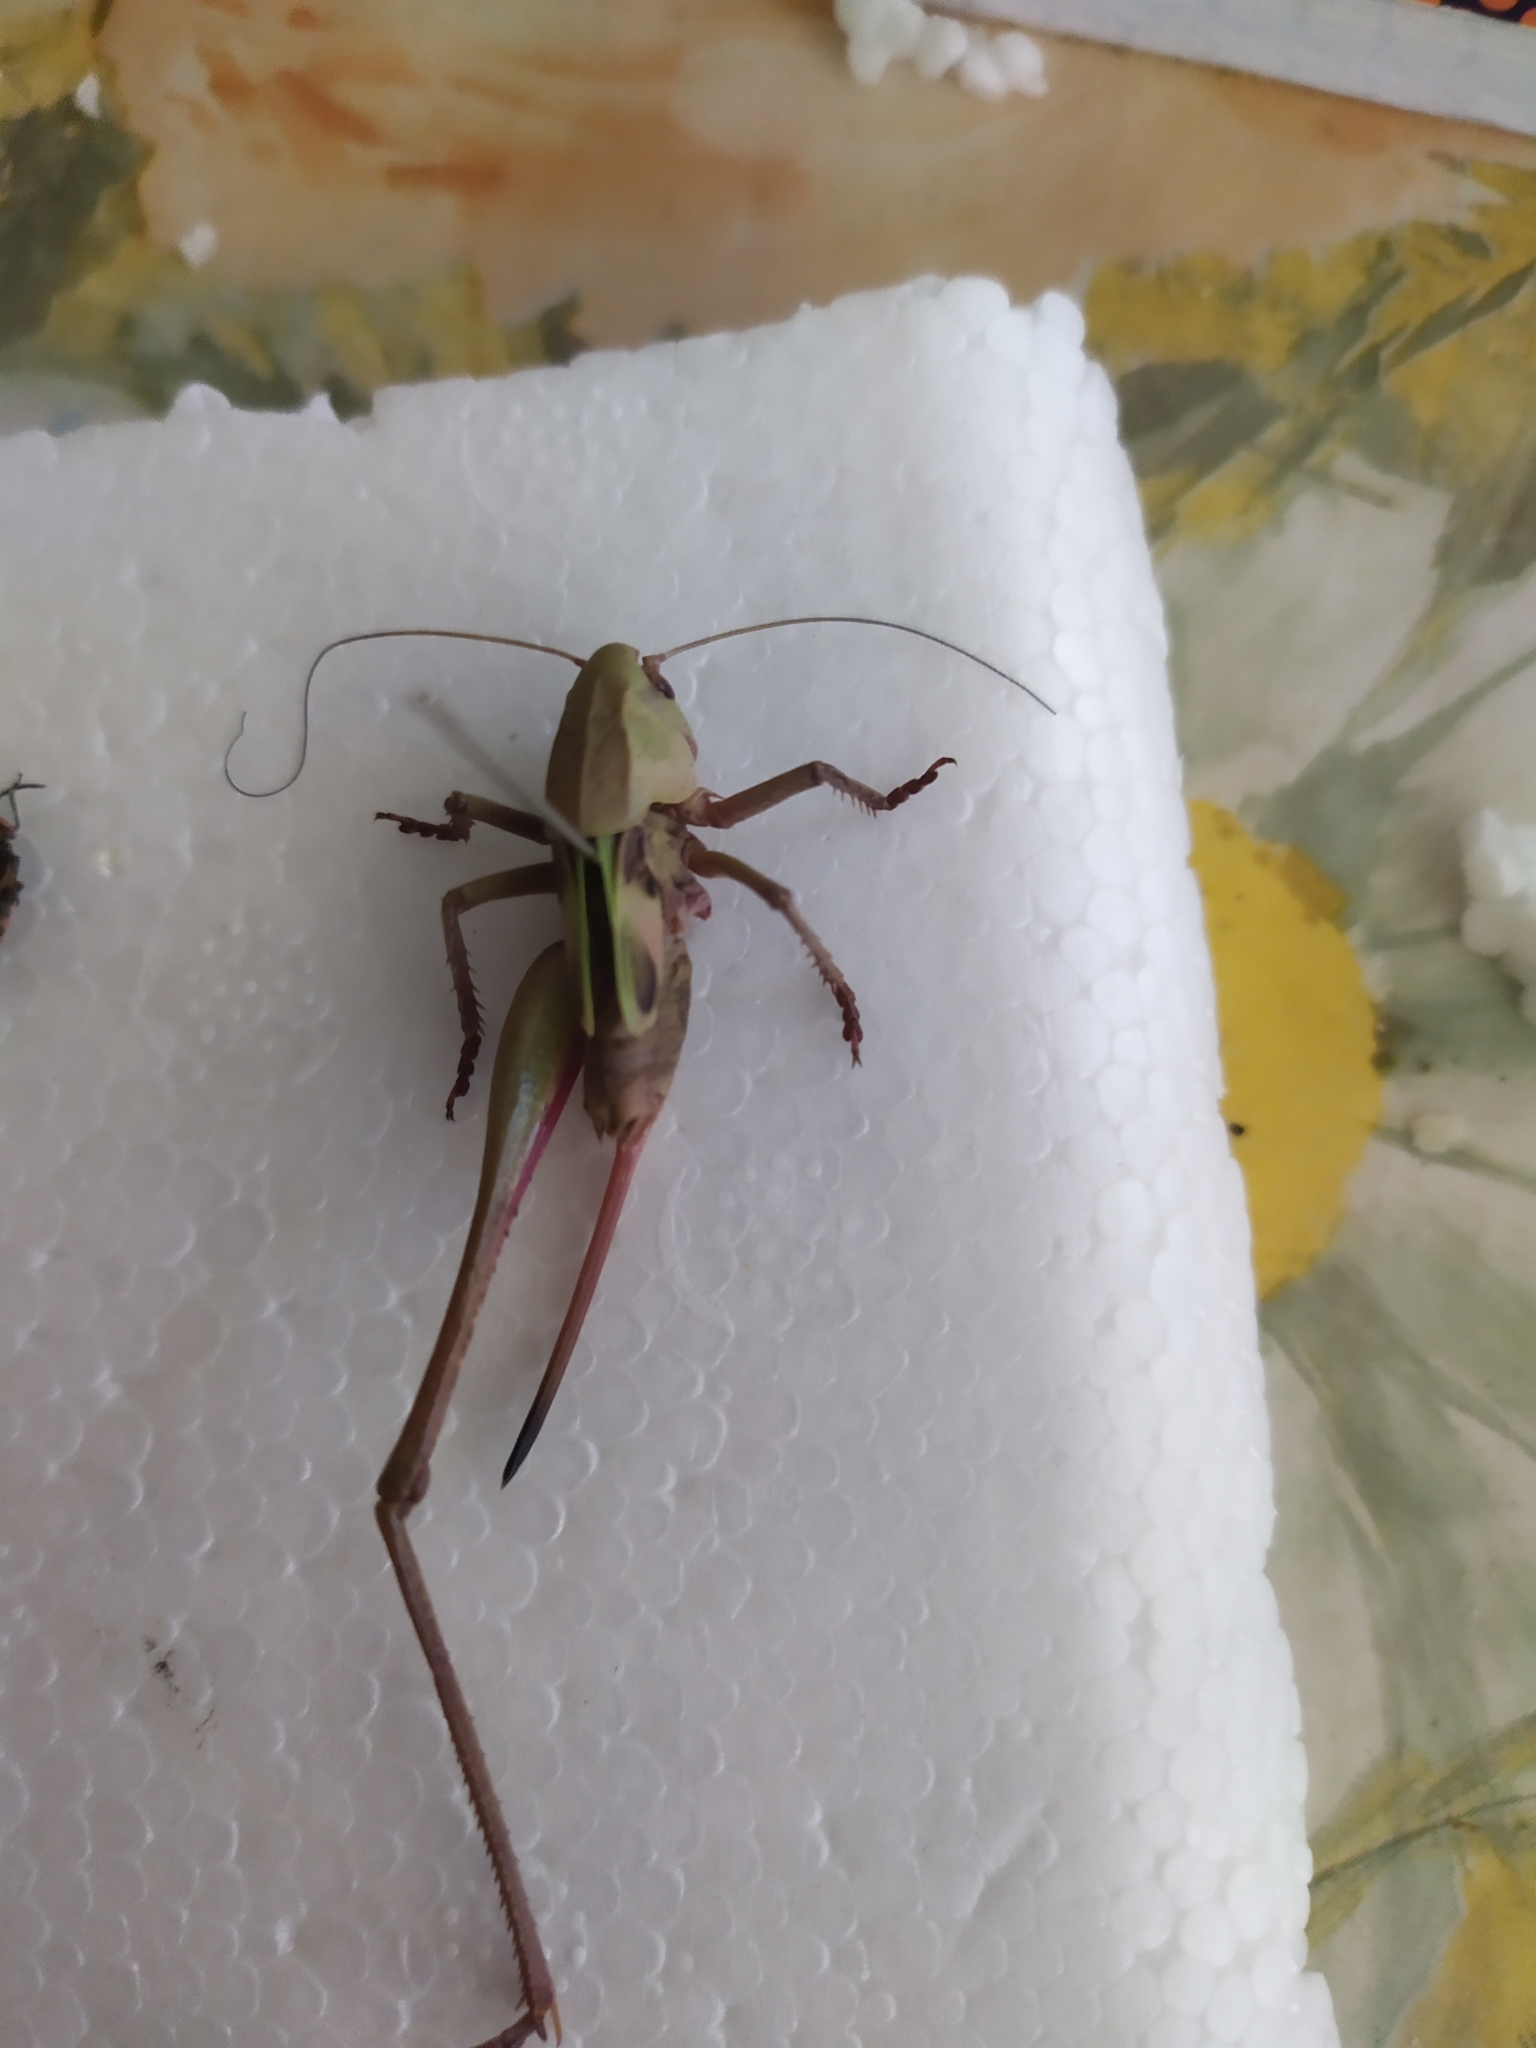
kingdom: Animalia
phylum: Arthropoda
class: Insecta
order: Orthoptera
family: Tettigoniidae
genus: Decticus
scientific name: Decticus verrucivorus
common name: Wart-biter
